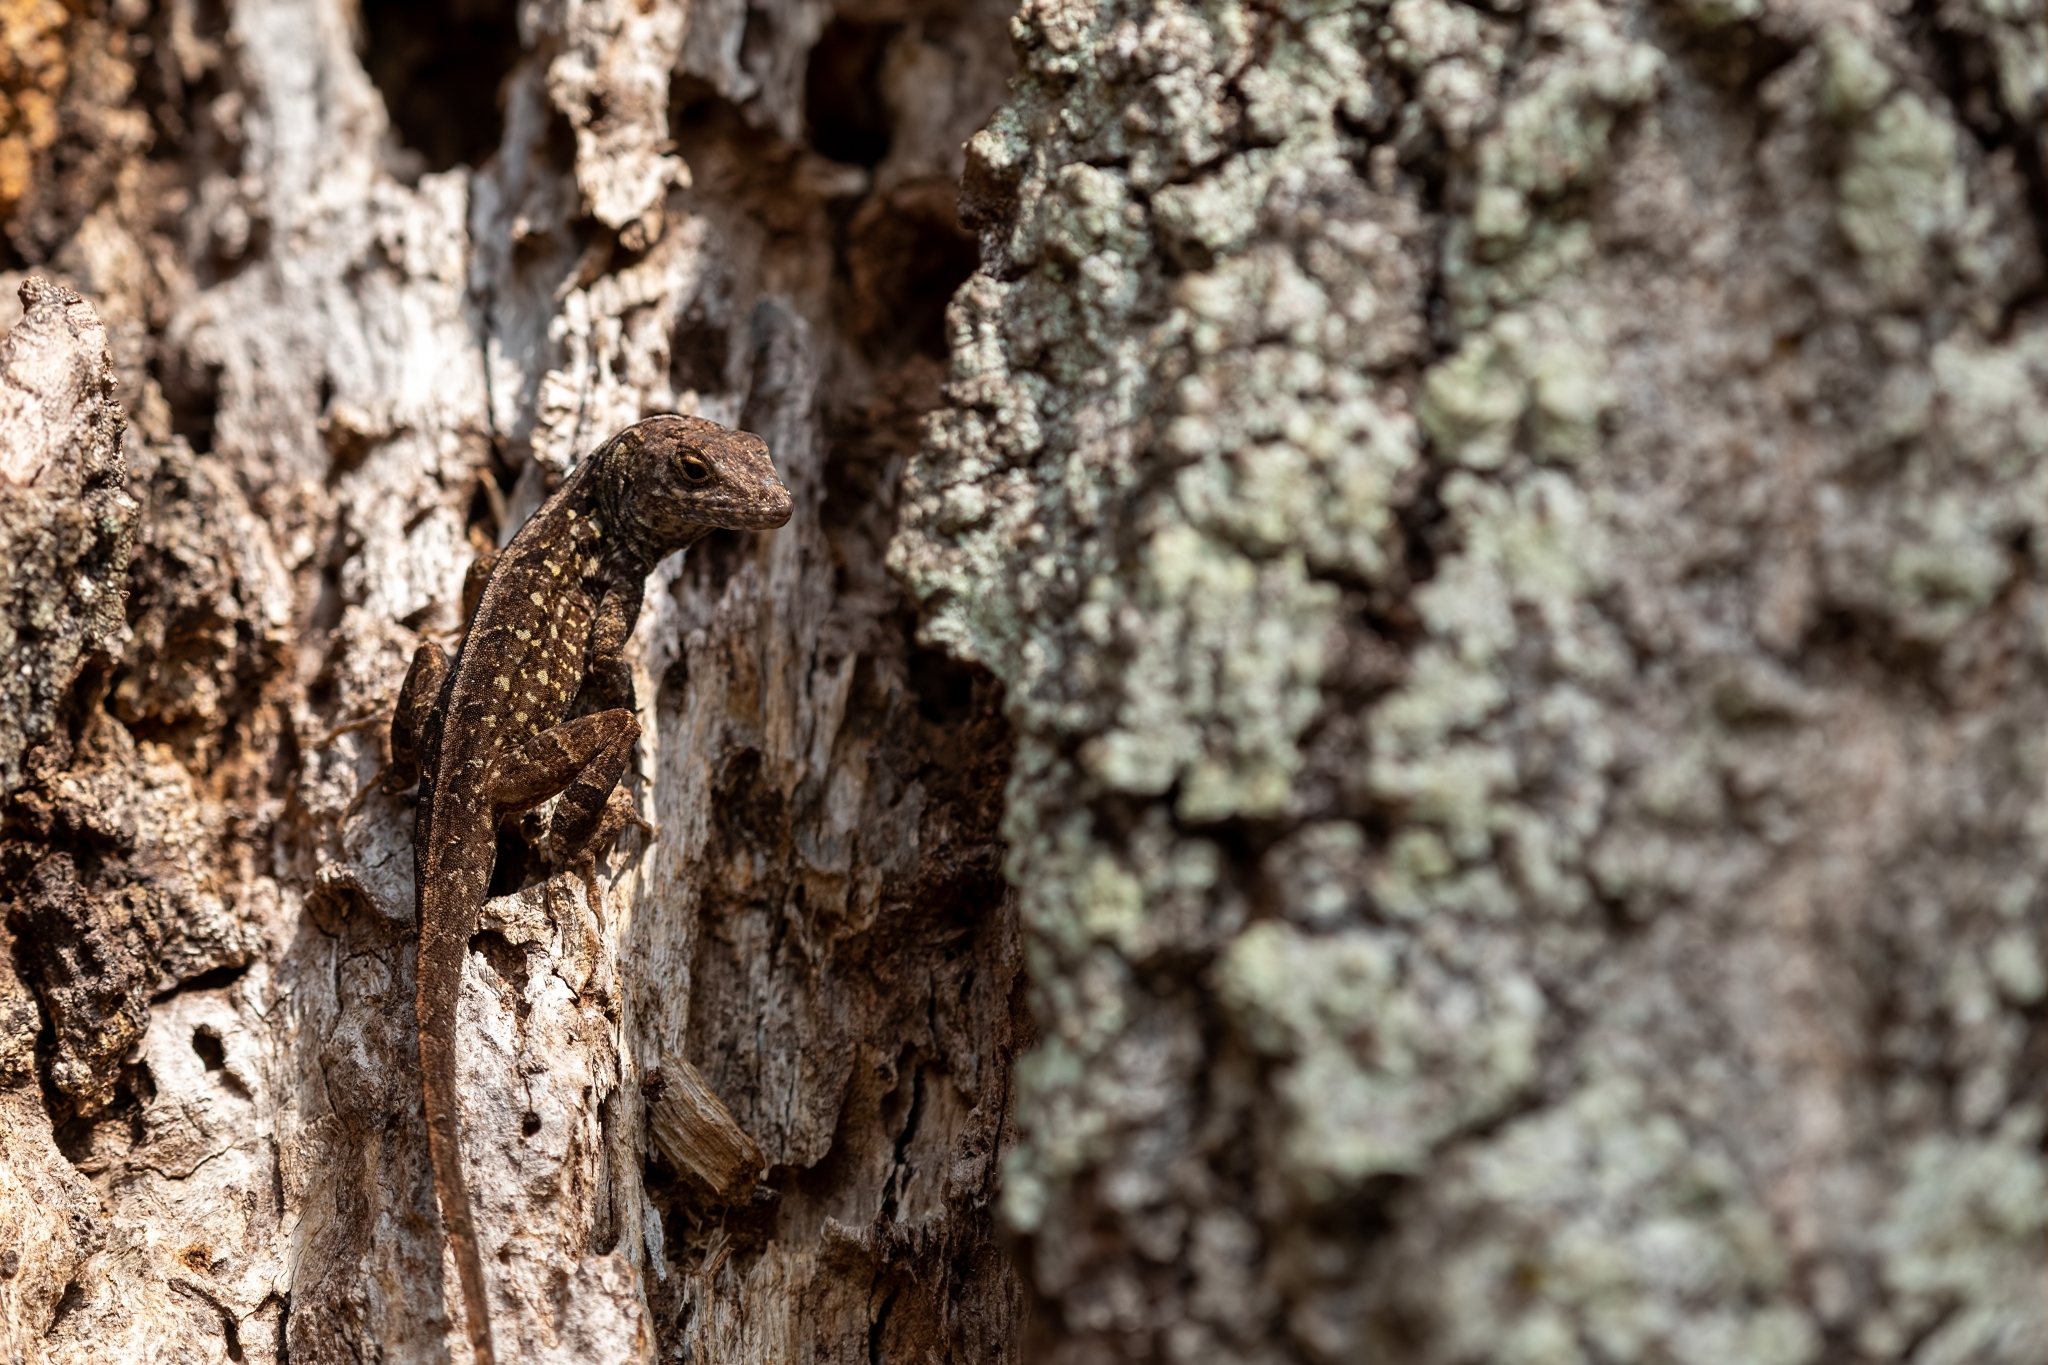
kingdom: Animalia
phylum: Chordata
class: Squamata
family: Dactyloidae
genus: Anolis
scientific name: Anolis sagrei
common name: Brown anole
